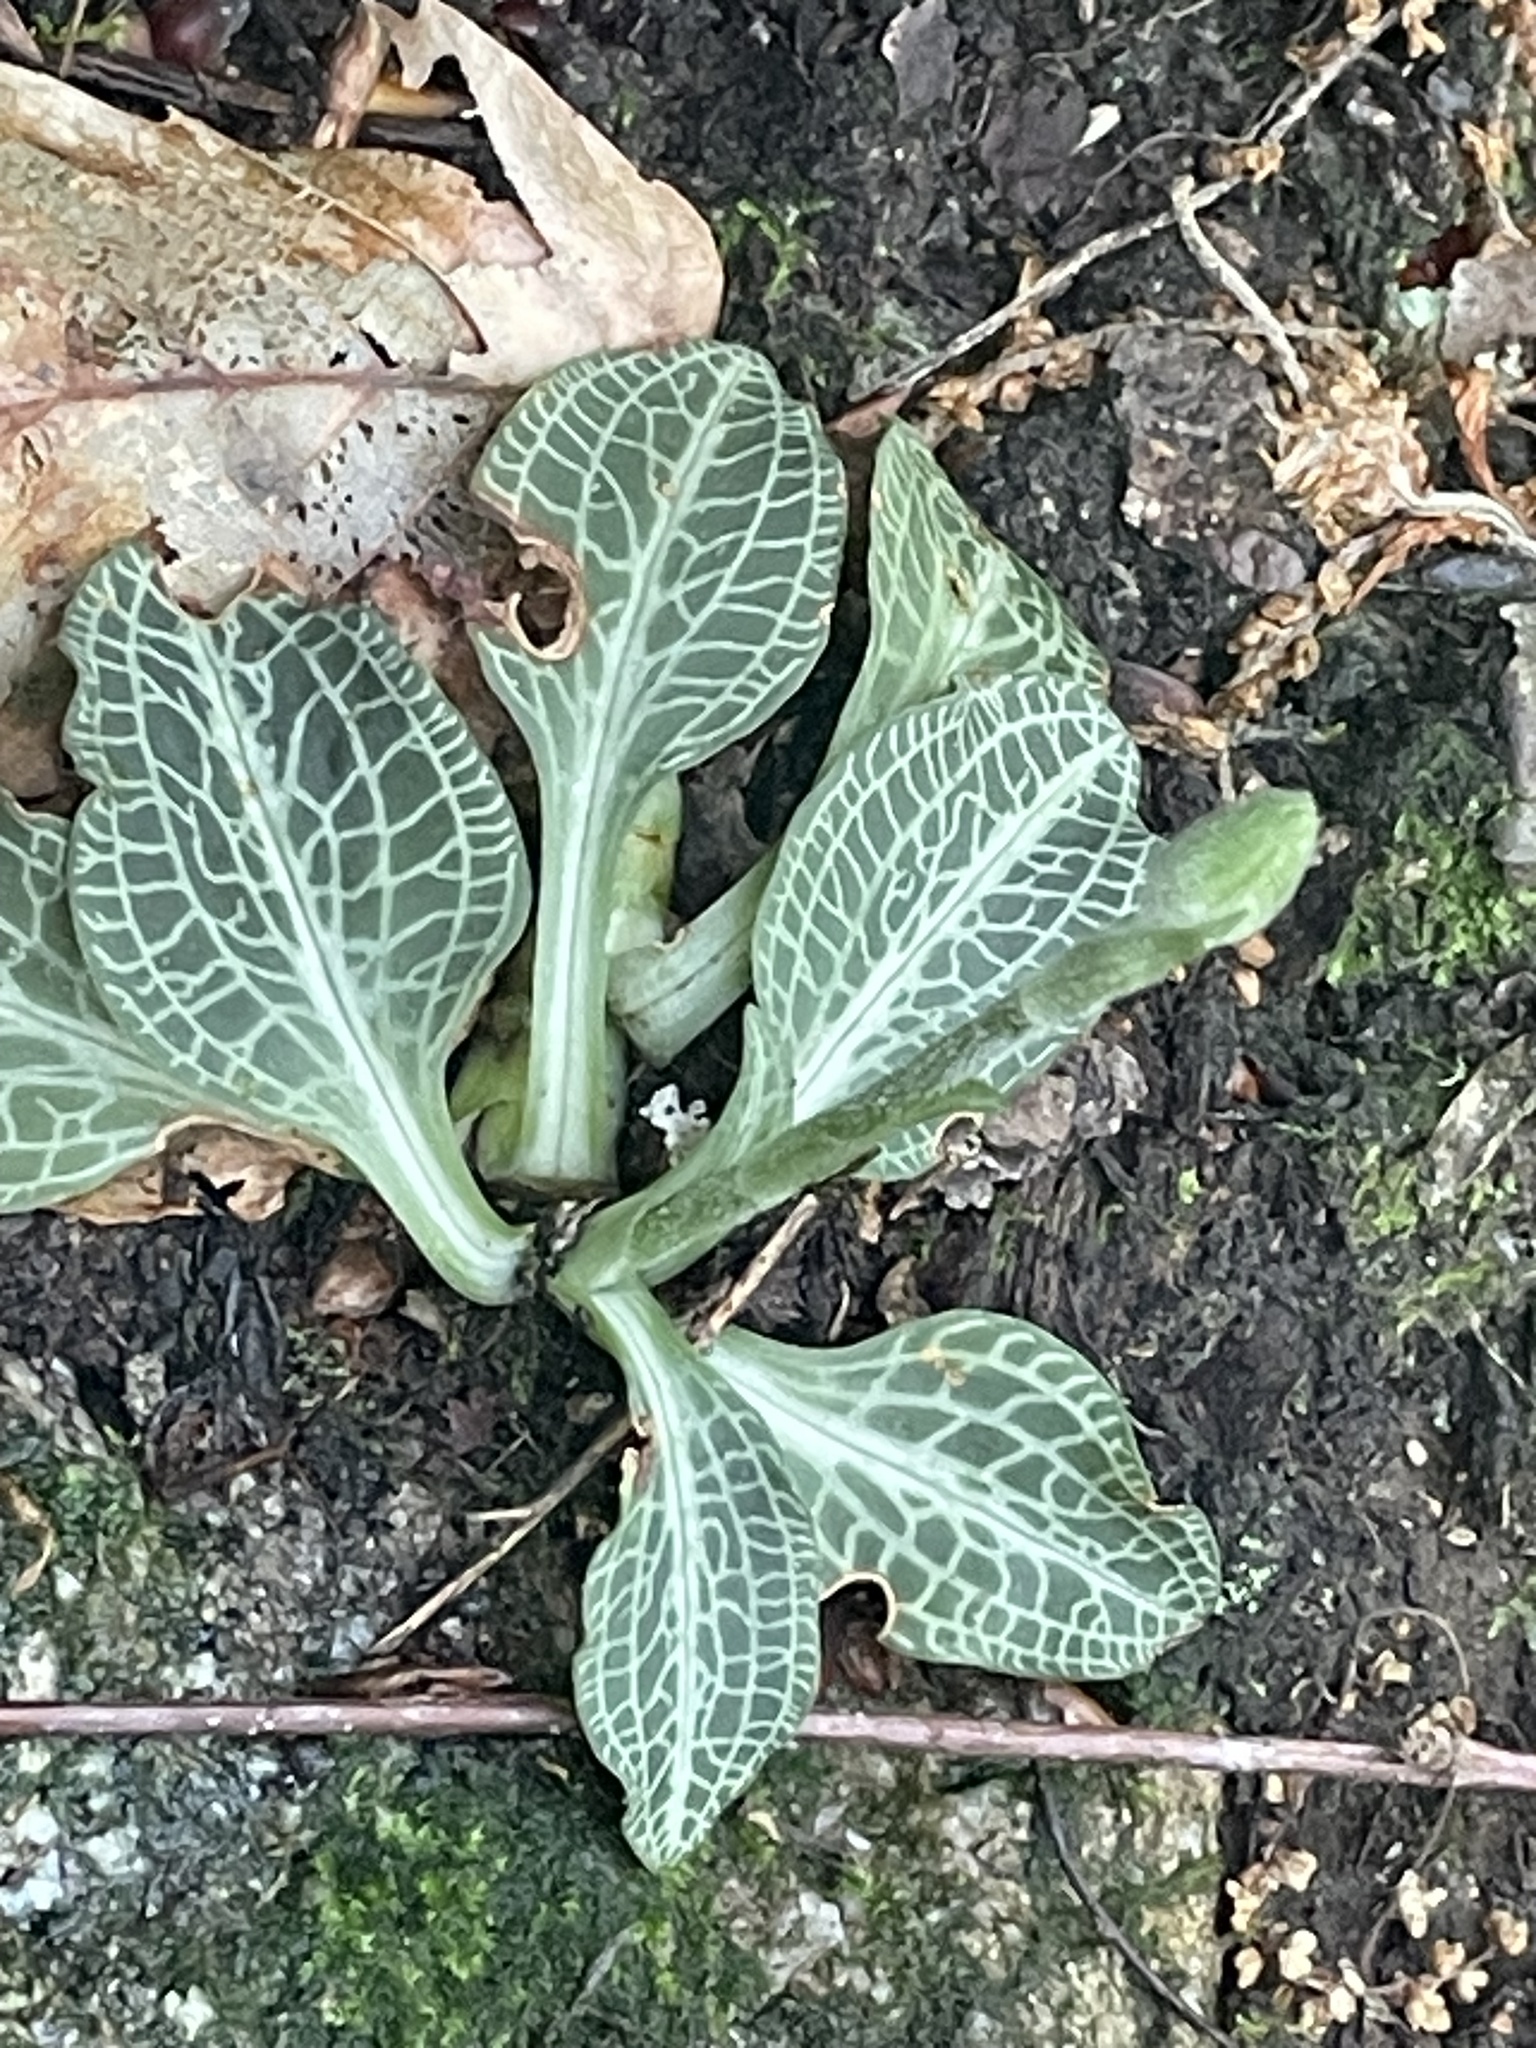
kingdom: Plantae
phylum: Tracheophyta
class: Liliopsida
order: Asparagales
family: Orchidaceae
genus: Goodyera
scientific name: Goodyera pubescens
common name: Downy rattlesnake-plantain
